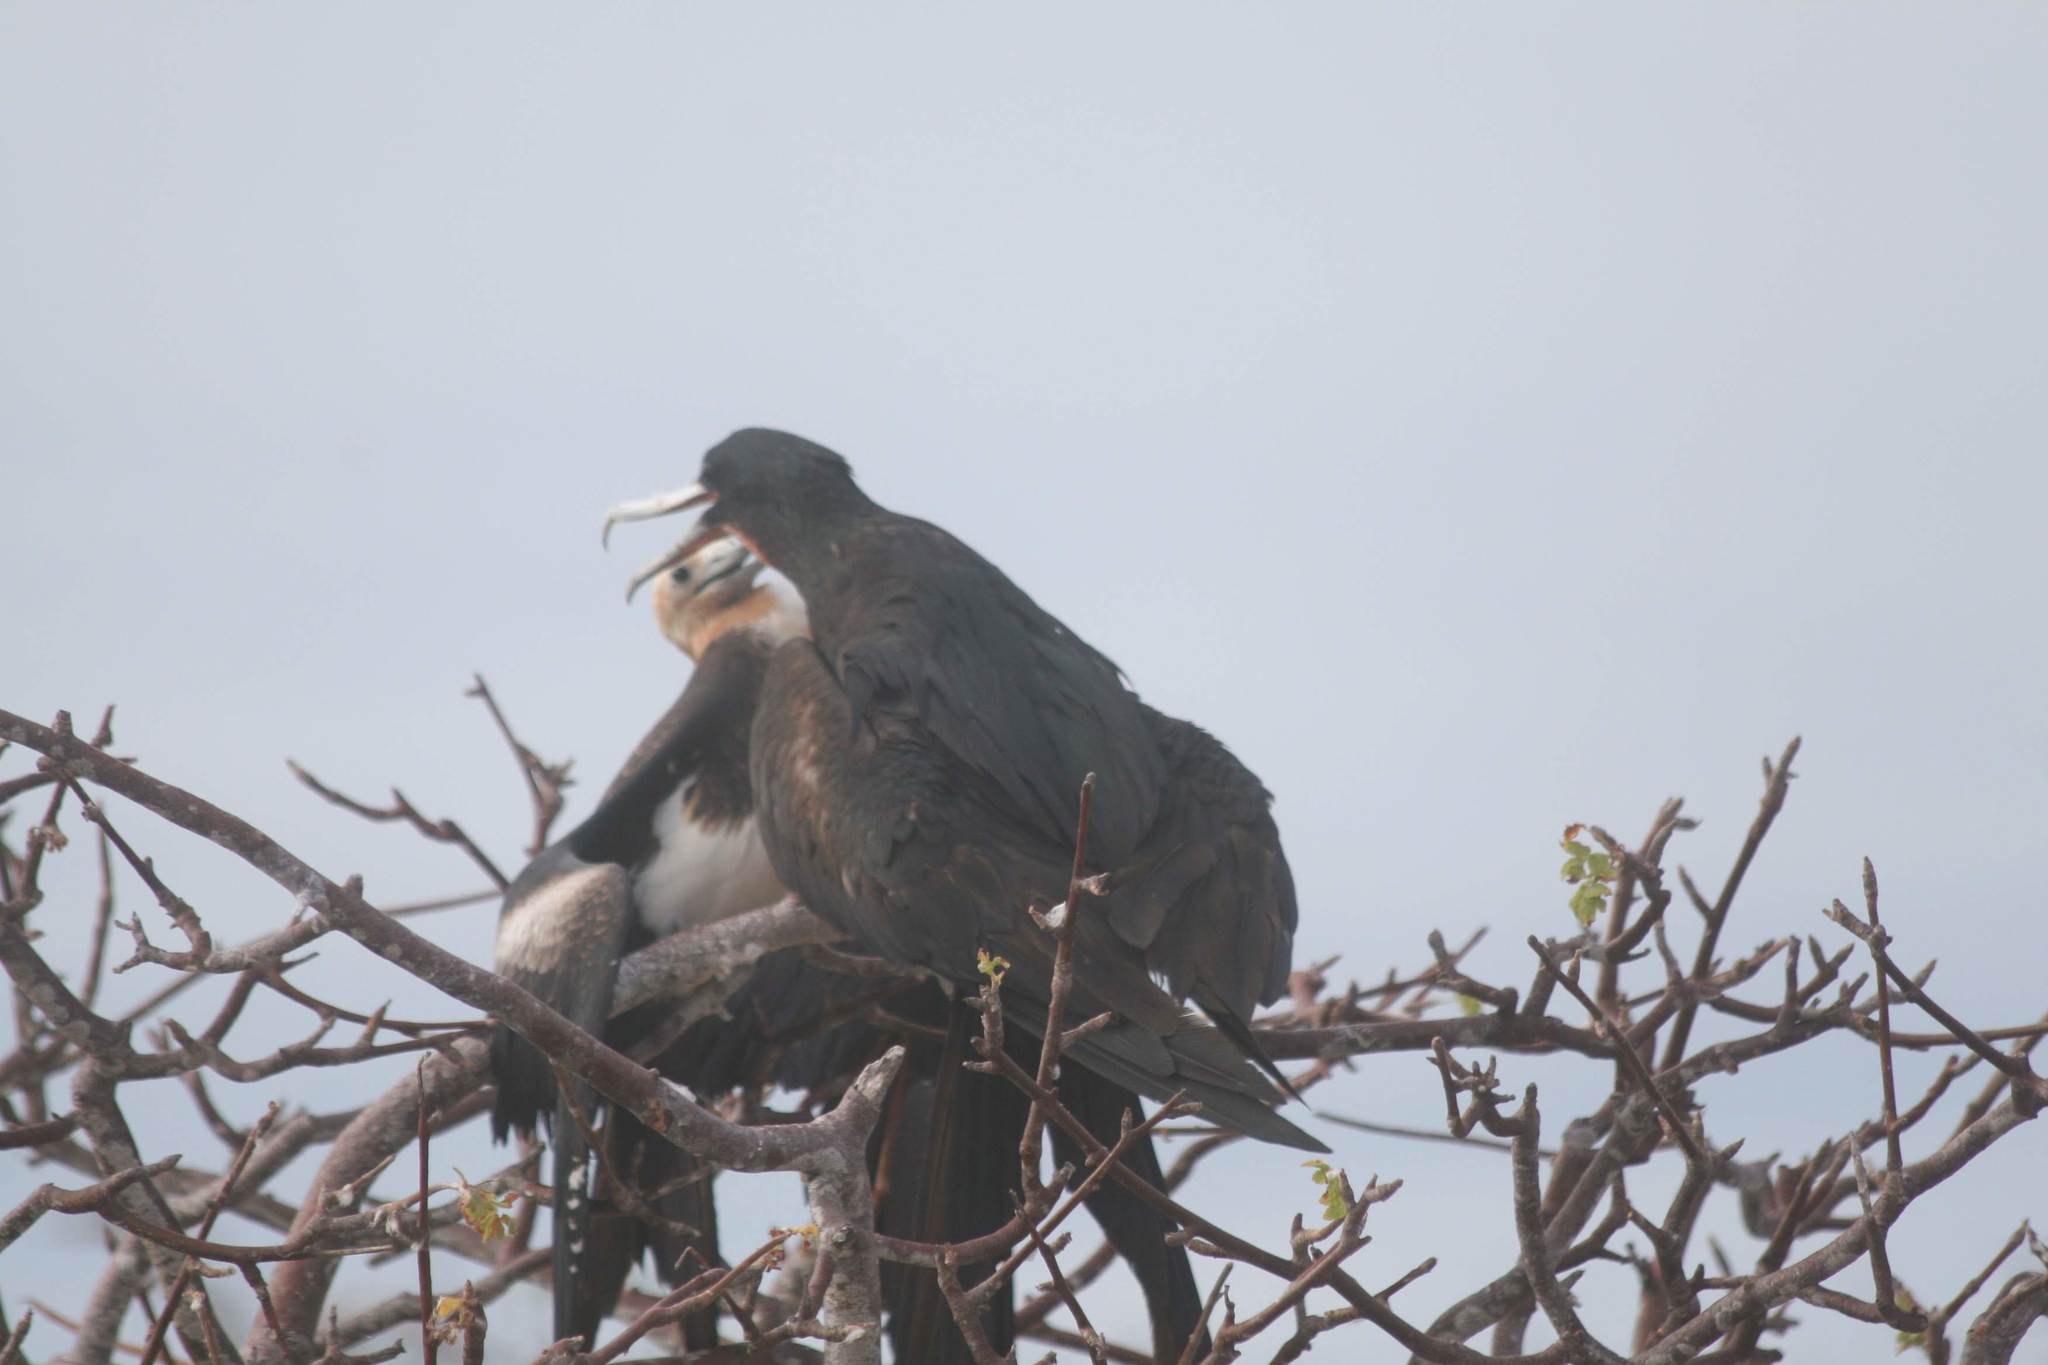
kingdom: Animalia
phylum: Chordata
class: Aves
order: Suliformes
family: Fregatidae
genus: Fregata
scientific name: Fregata minor
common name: Great frigatebird
